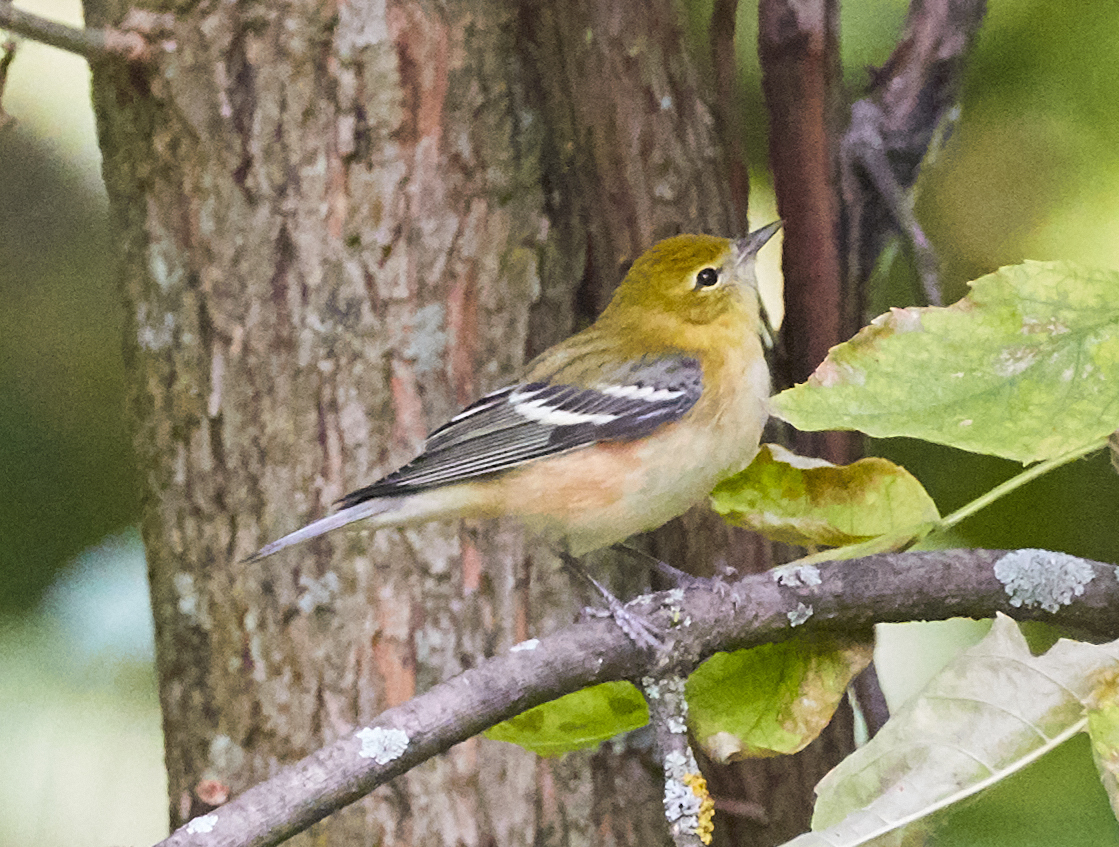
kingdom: Animalia
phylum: Chordata
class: Aves
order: Passeriformes
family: Parulidae
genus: Setophaga
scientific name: Setophaga castanea
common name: Bay-breasted warbler
